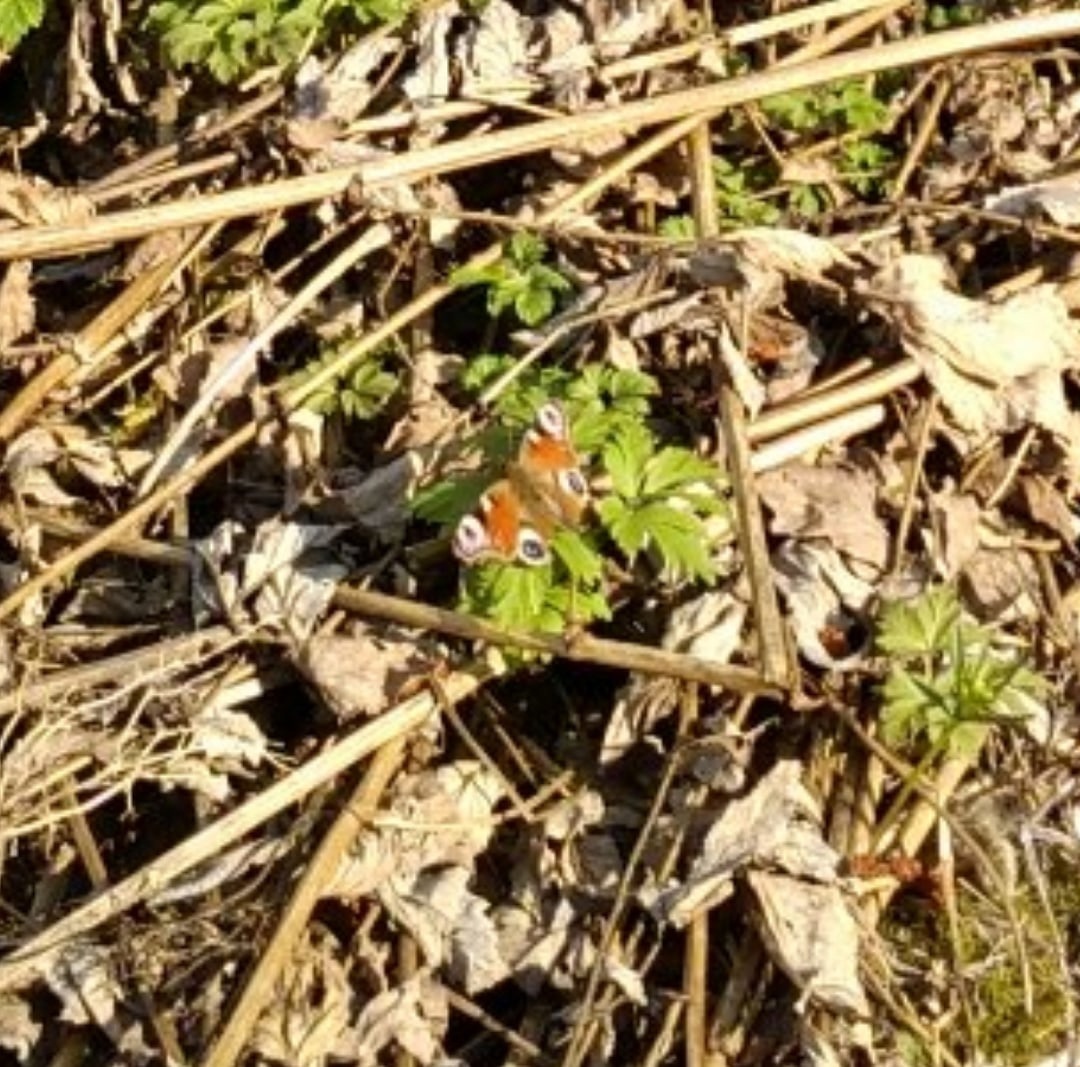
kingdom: Animalia
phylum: Arthropoda
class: Insecta
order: Lepidoptera
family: Nymphalidae
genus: Aglais
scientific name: Aglais io
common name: Peacock
